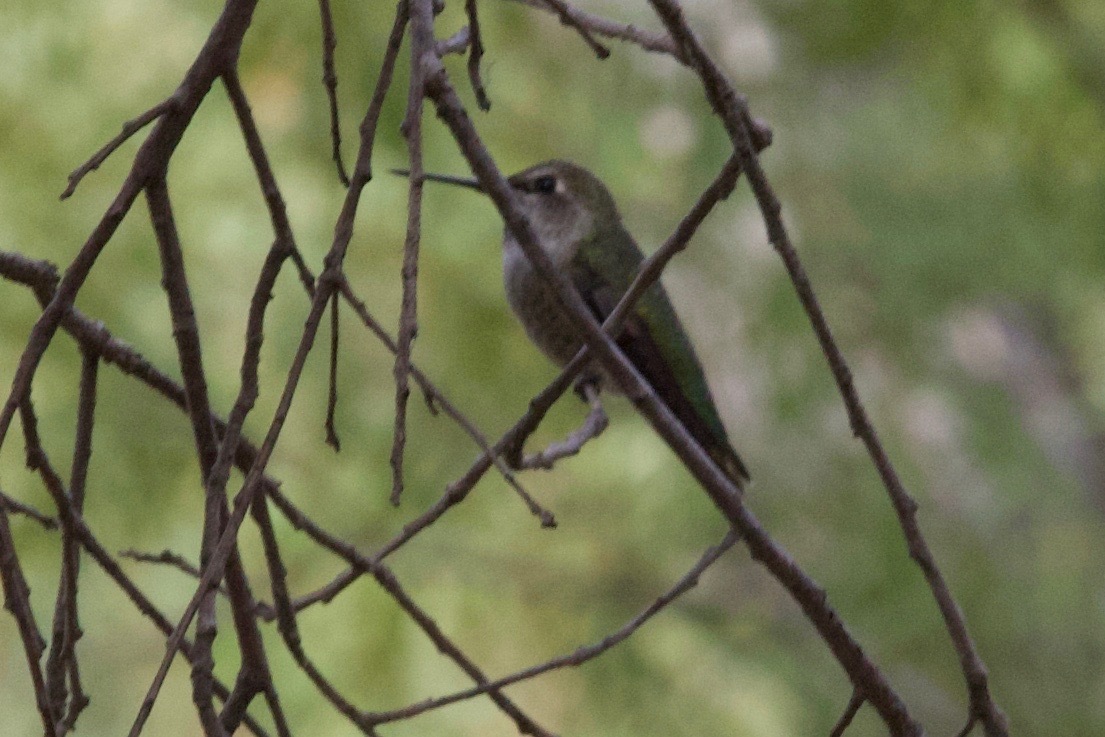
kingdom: Animalia
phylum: Chordata
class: Aves
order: Apodiformes
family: Trochilidae
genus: Calypte
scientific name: Calypte anna
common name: Anna's hummingbird
